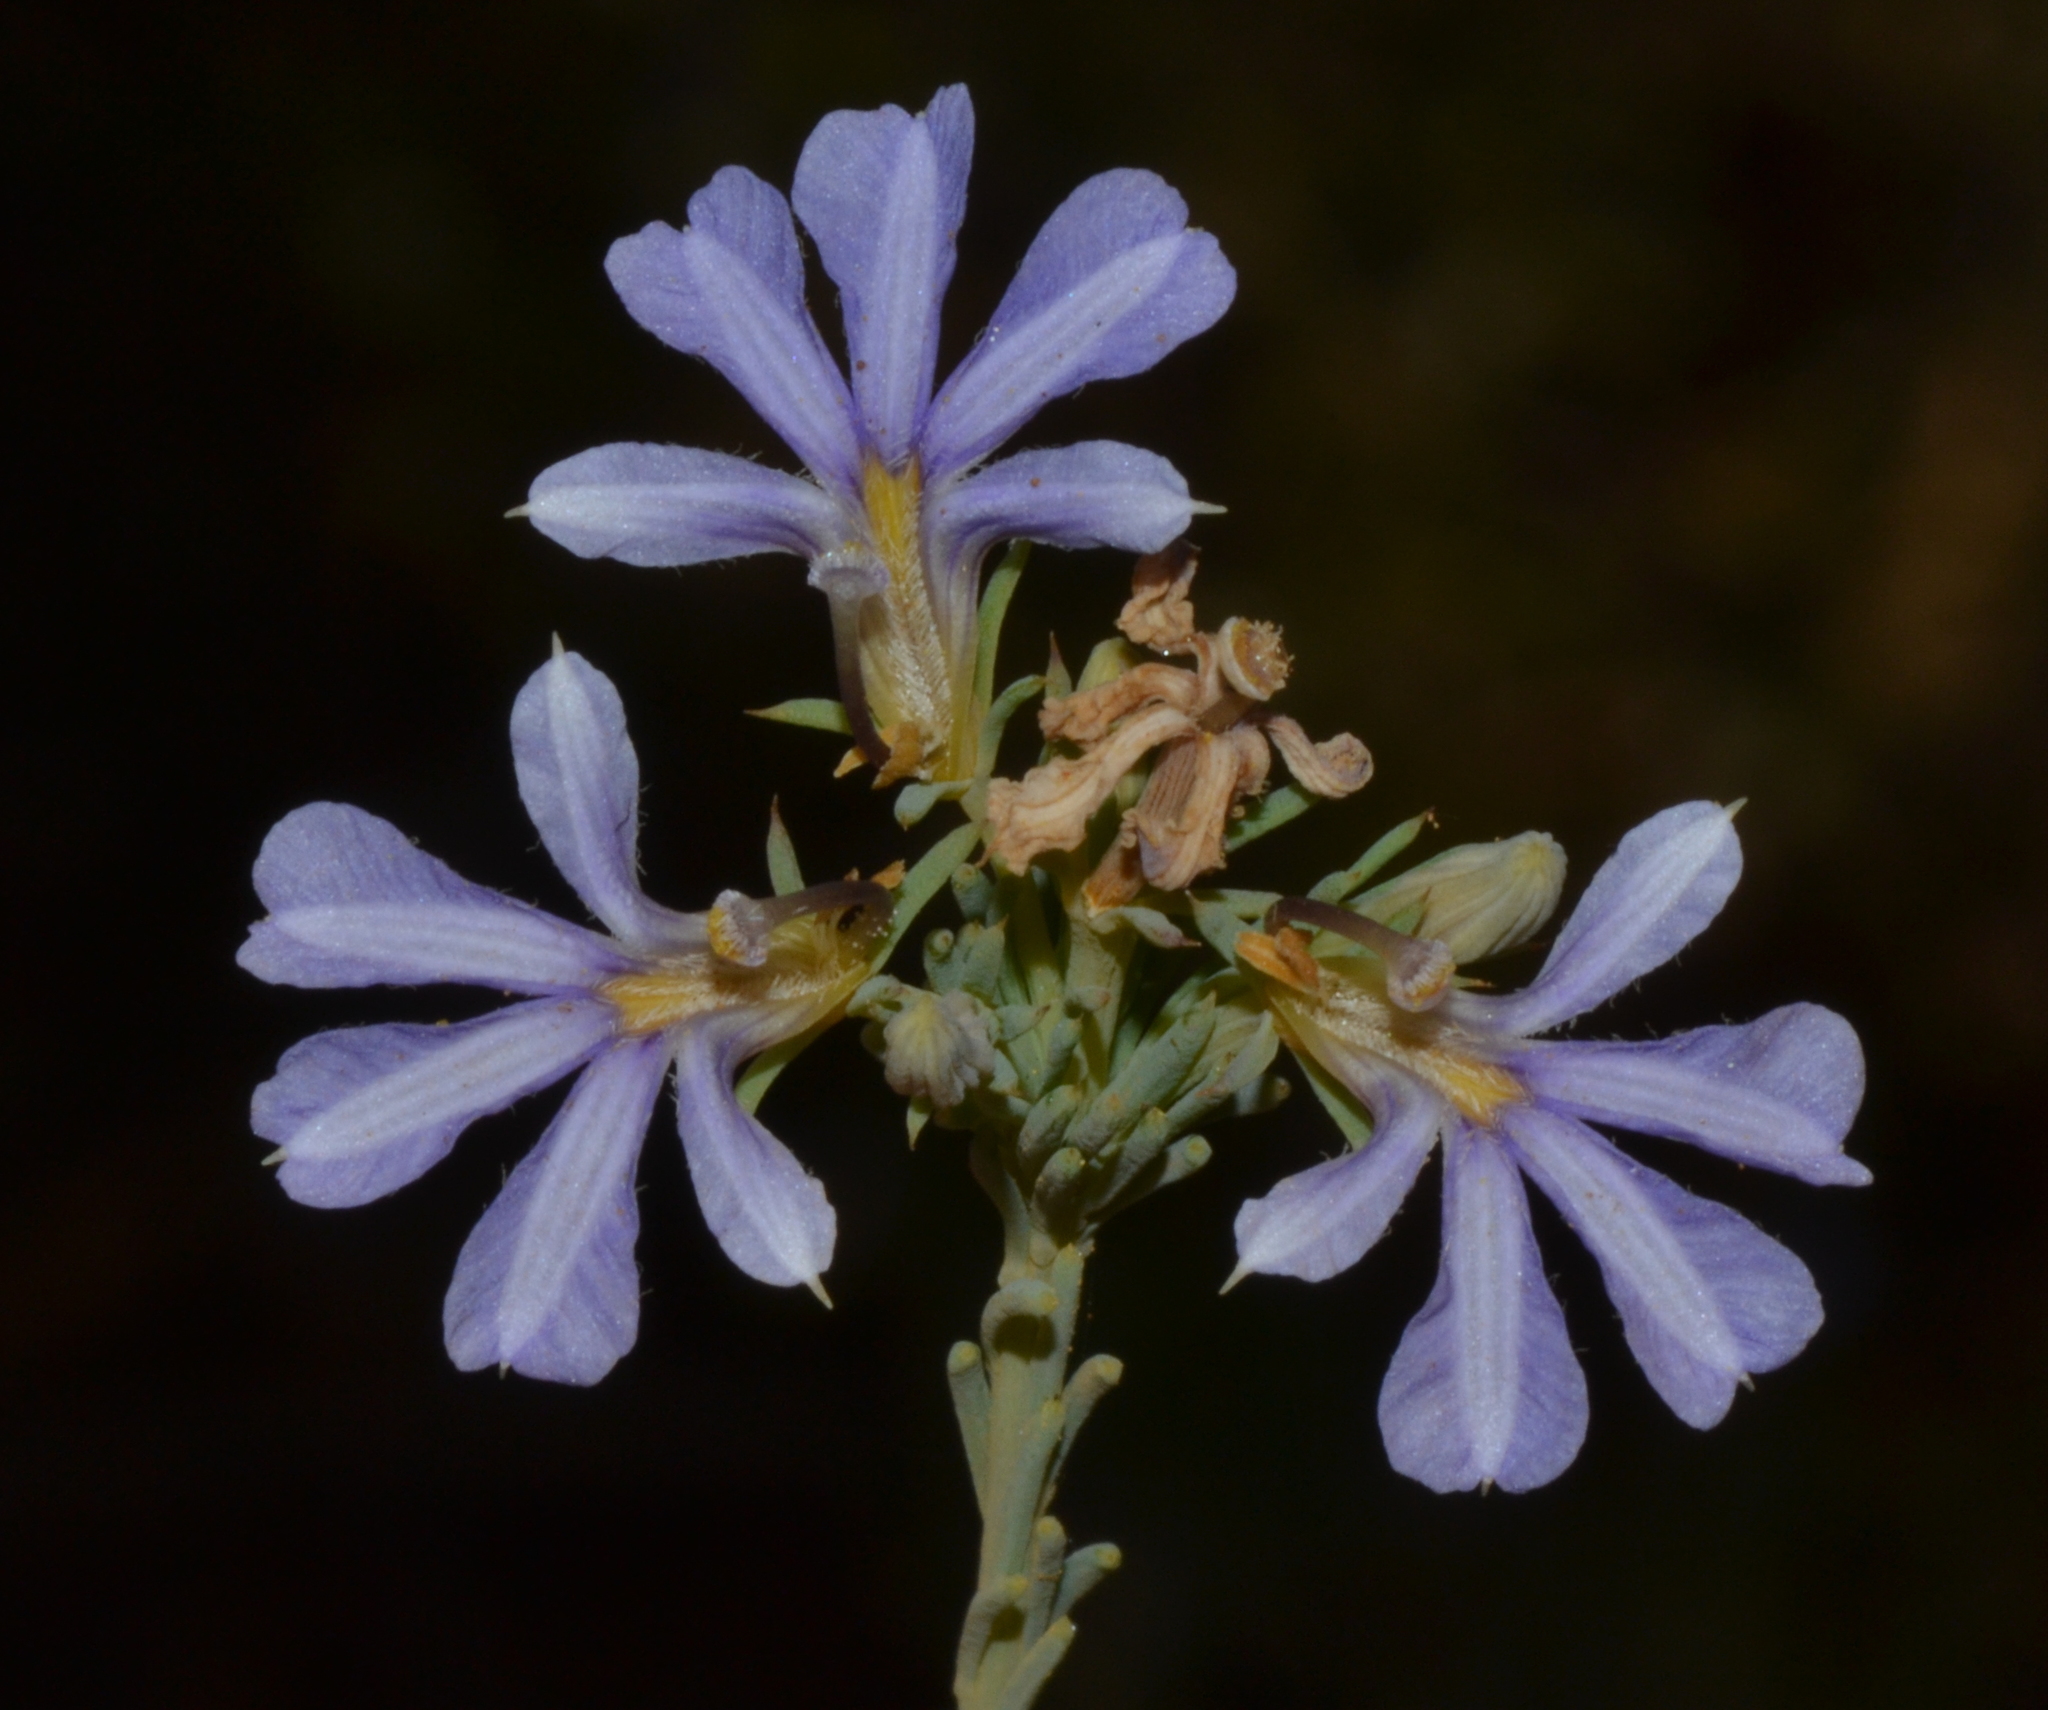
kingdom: Plantae
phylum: Tracheophyta
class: Magnoliopsida
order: Asterales
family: Goodeniaceae
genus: Lechenaultia
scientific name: Lechenaultia floribunda
